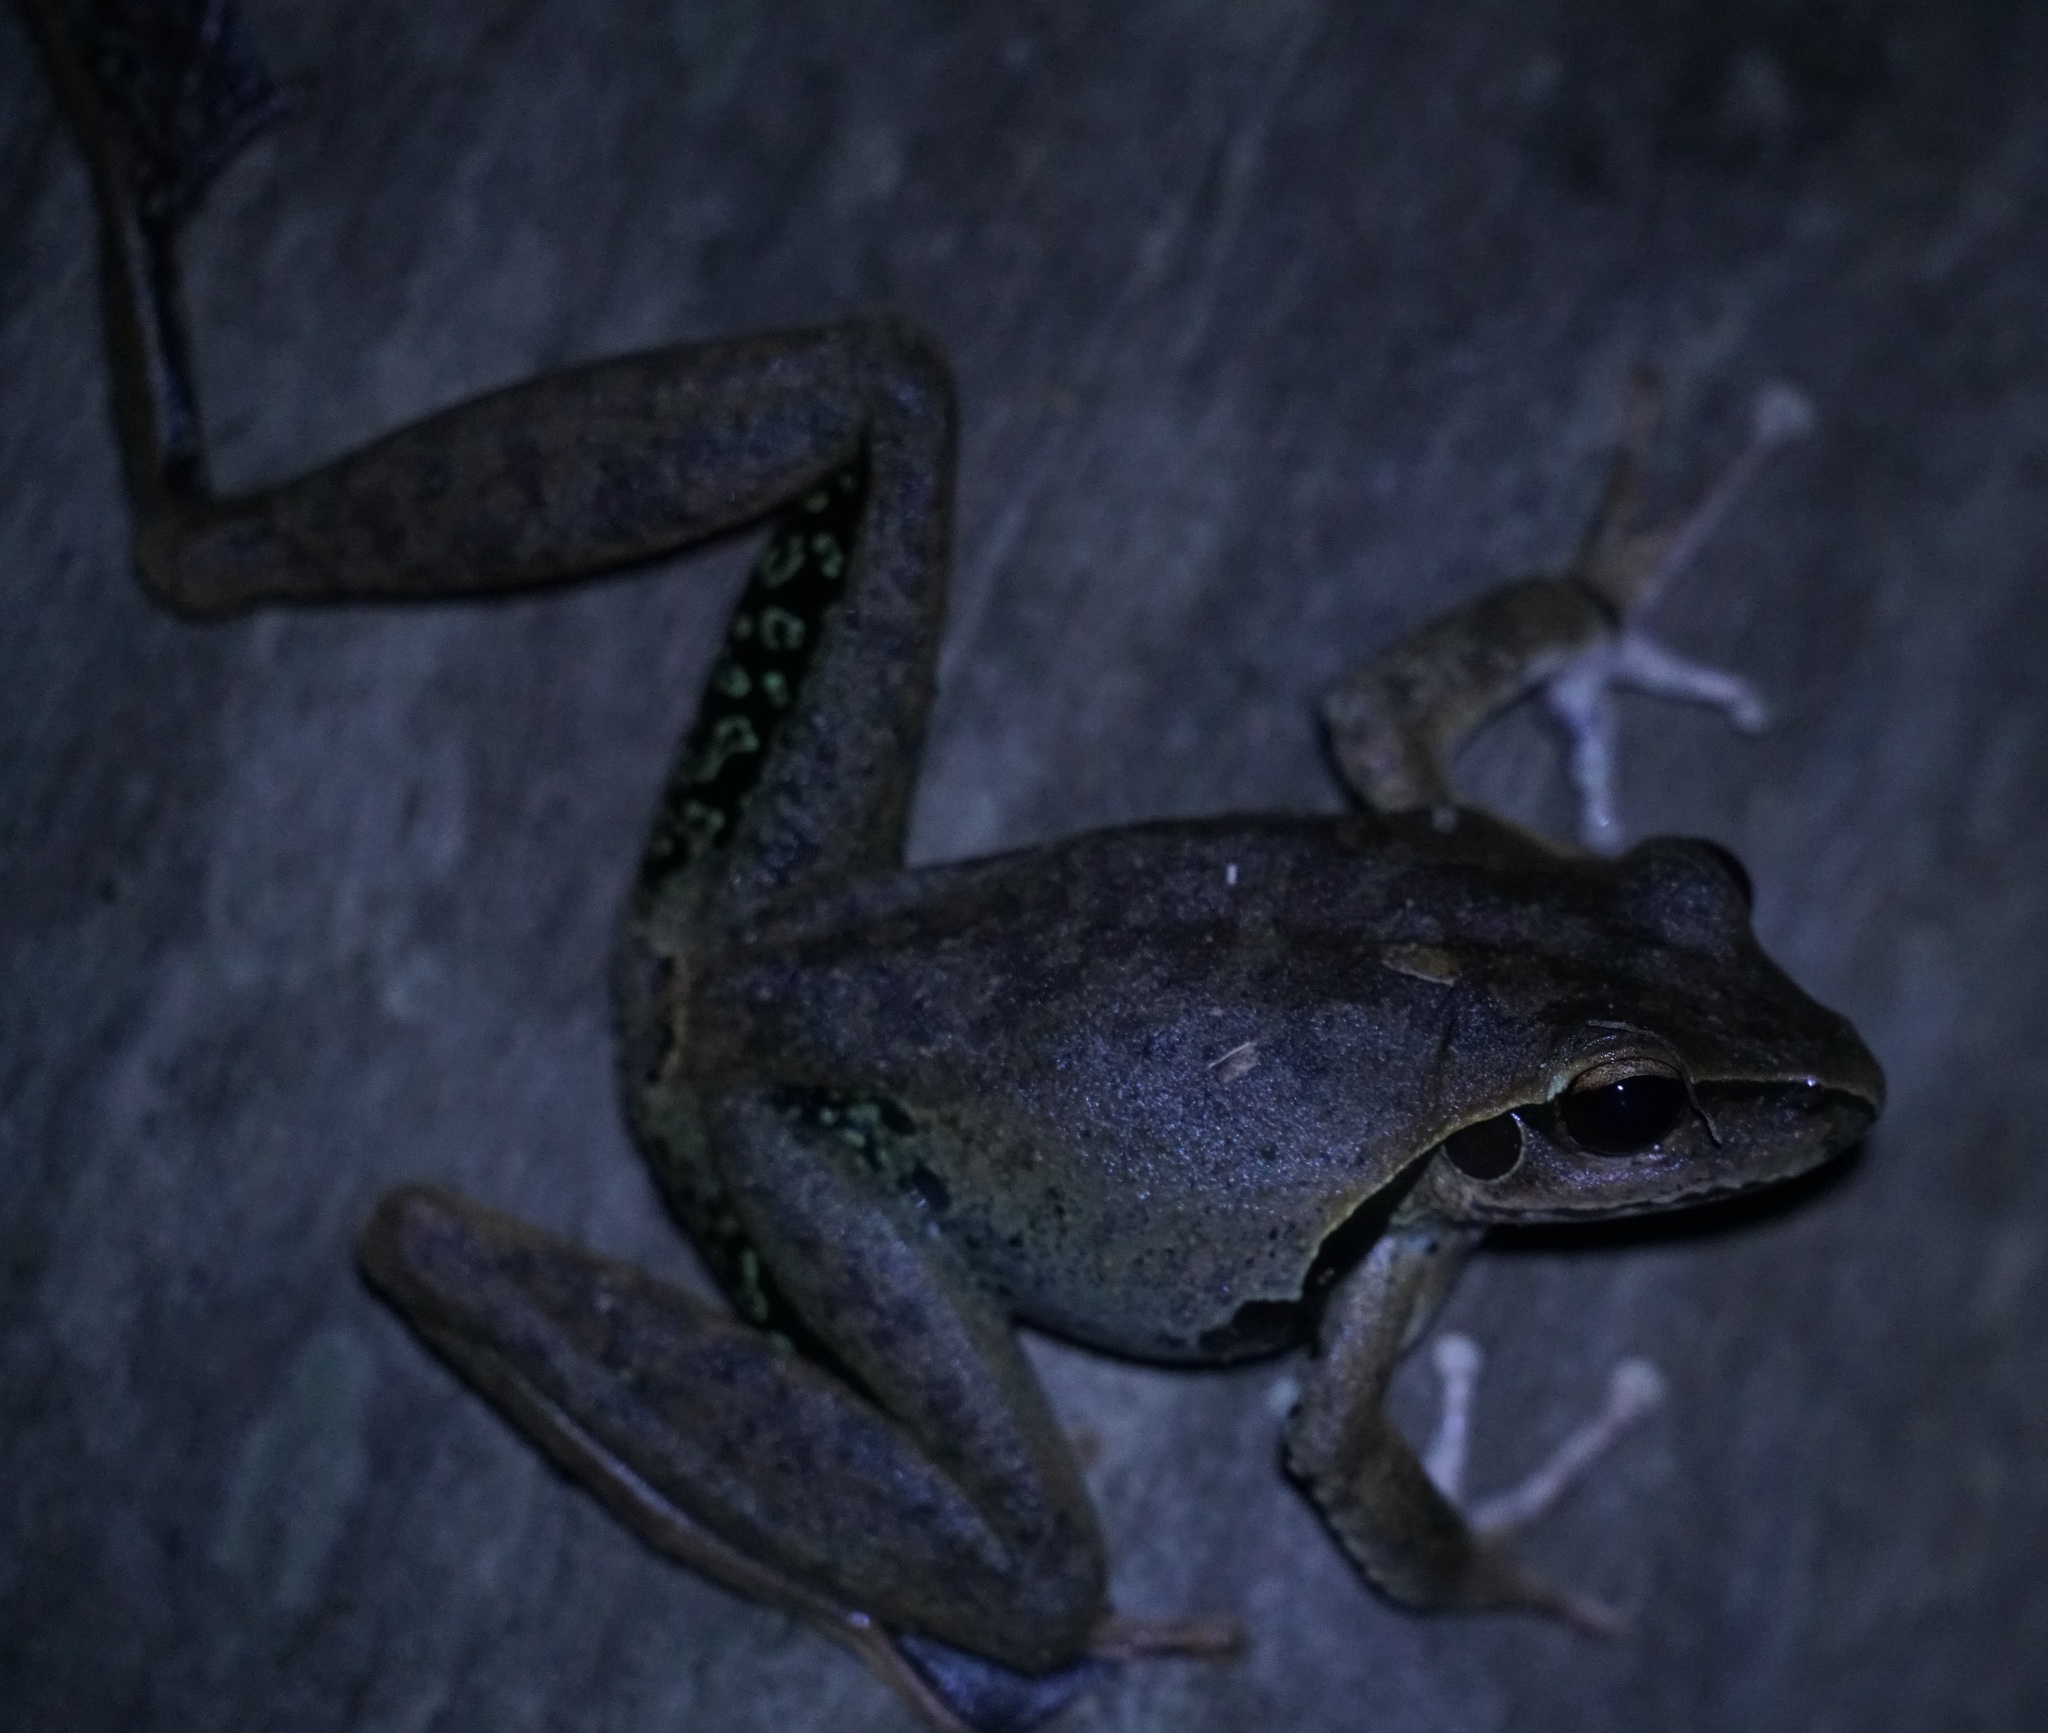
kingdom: Animalia
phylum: Chordata
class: Amphibia
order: Anura
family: Hylidae
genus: Ranoidea
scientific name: Ranoidea
